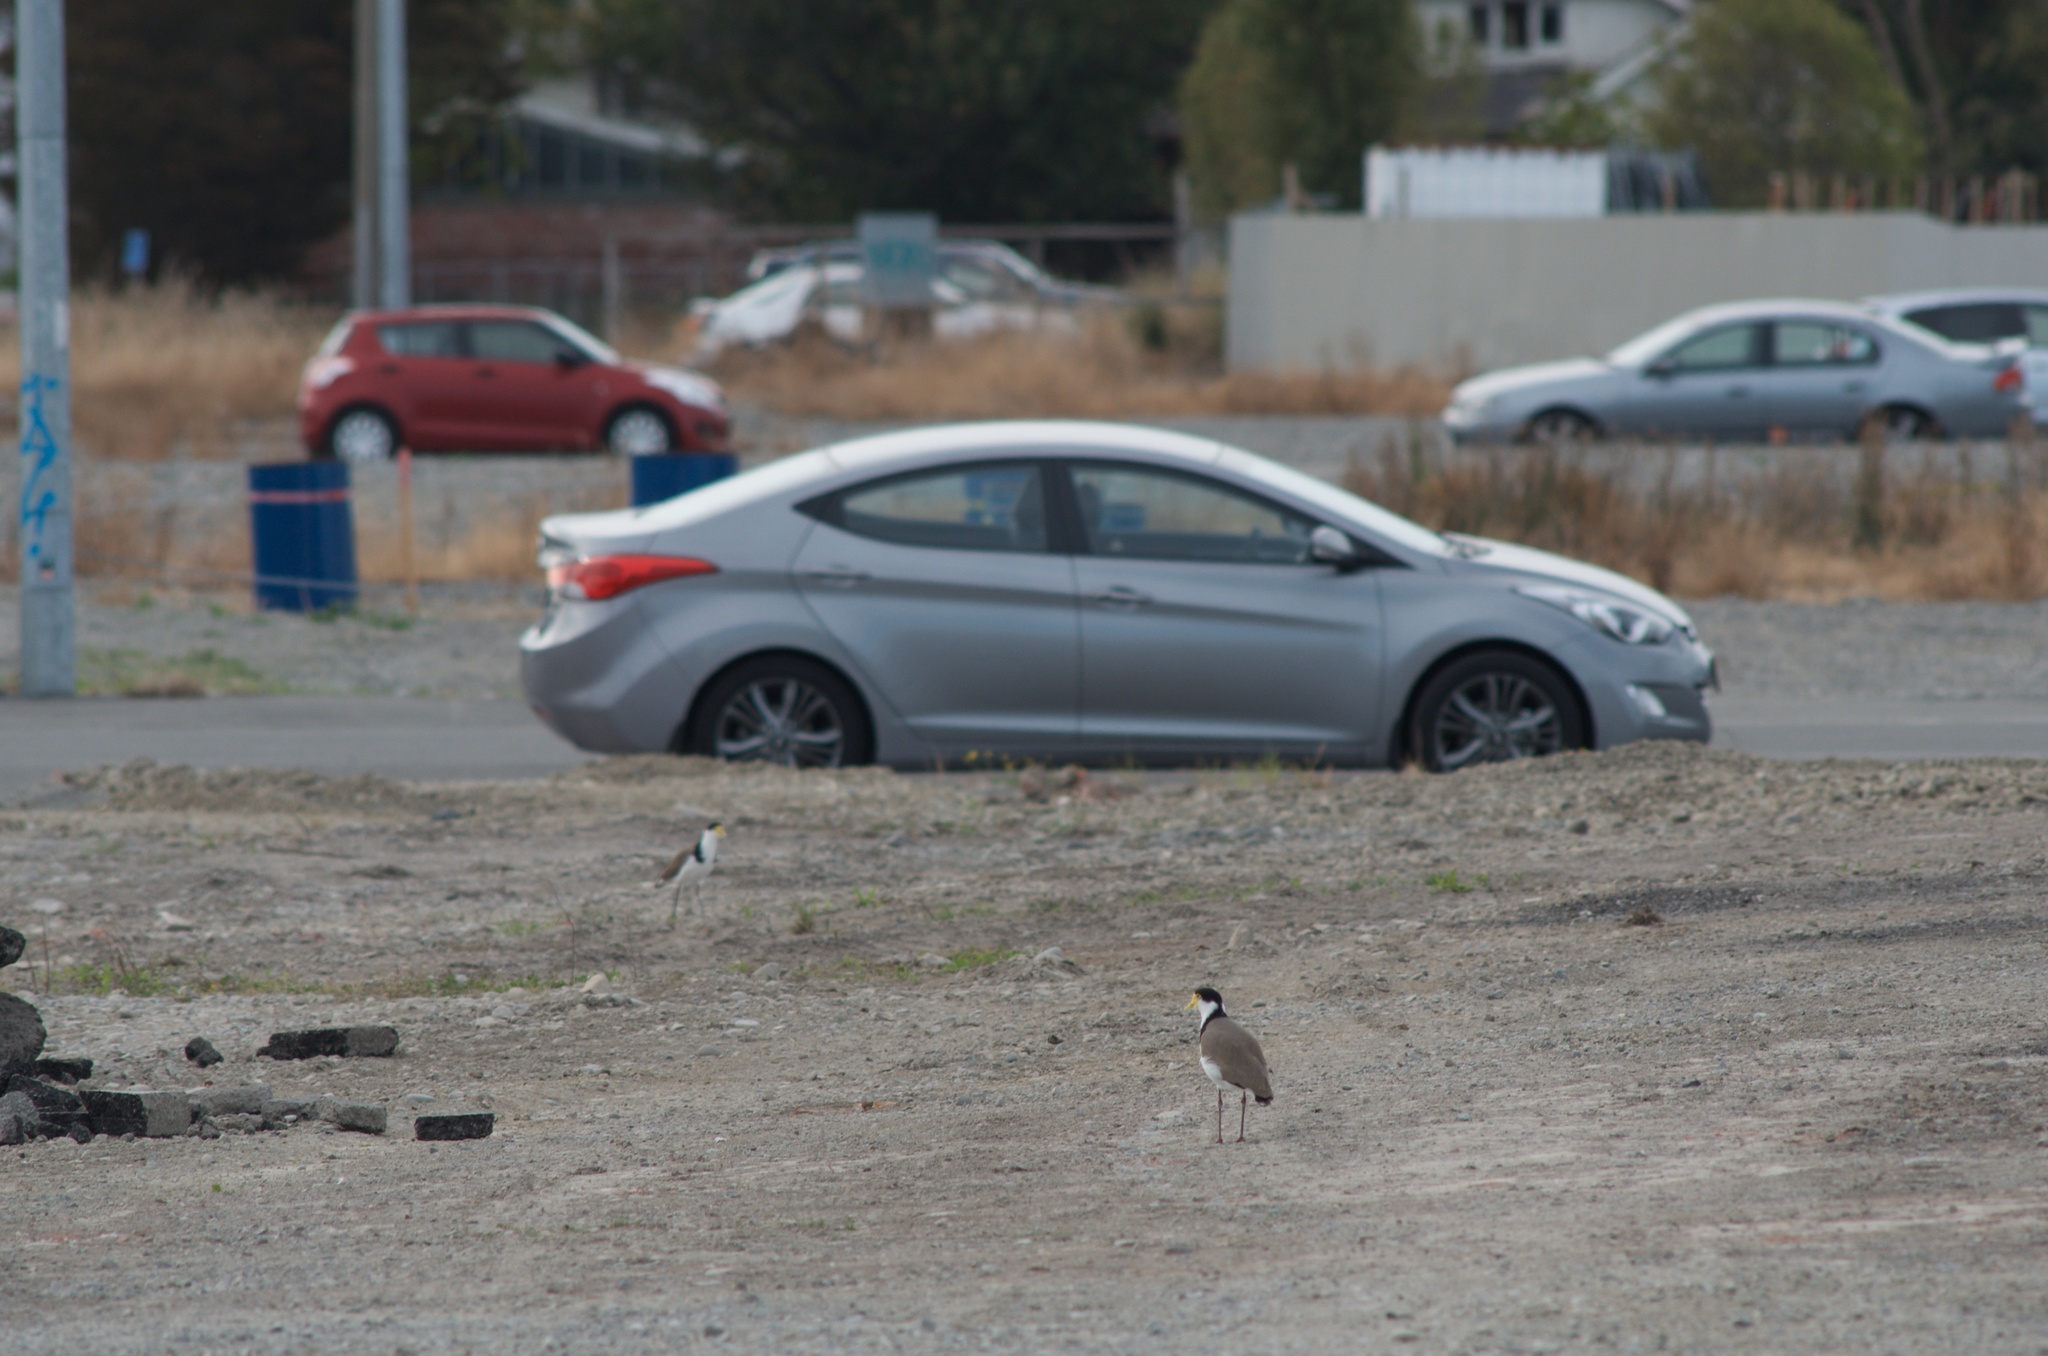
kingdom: Animalia
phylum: Chordata
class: Aves
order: Charadriiformes
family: Charadriidae
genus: Vanellus
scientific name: Vanellus miles
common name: Masked lapwing
